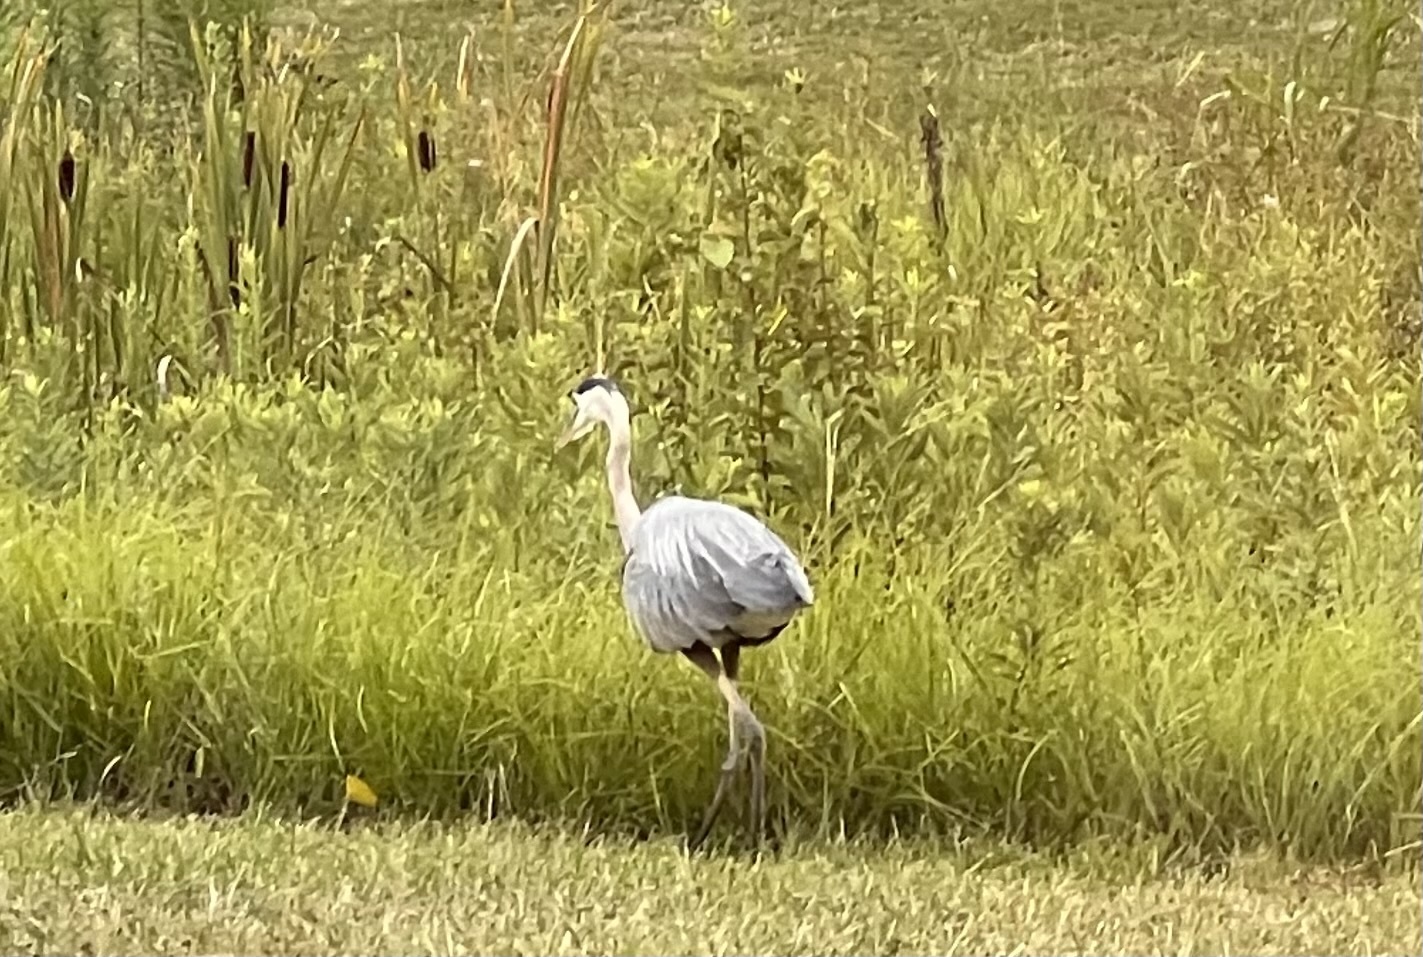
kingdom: Animalia
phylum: Chordata
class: Aves
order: Pelecaniformes
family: Ardeidae
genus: Ardea
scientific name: Ardea herodias
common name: Great blue heron
